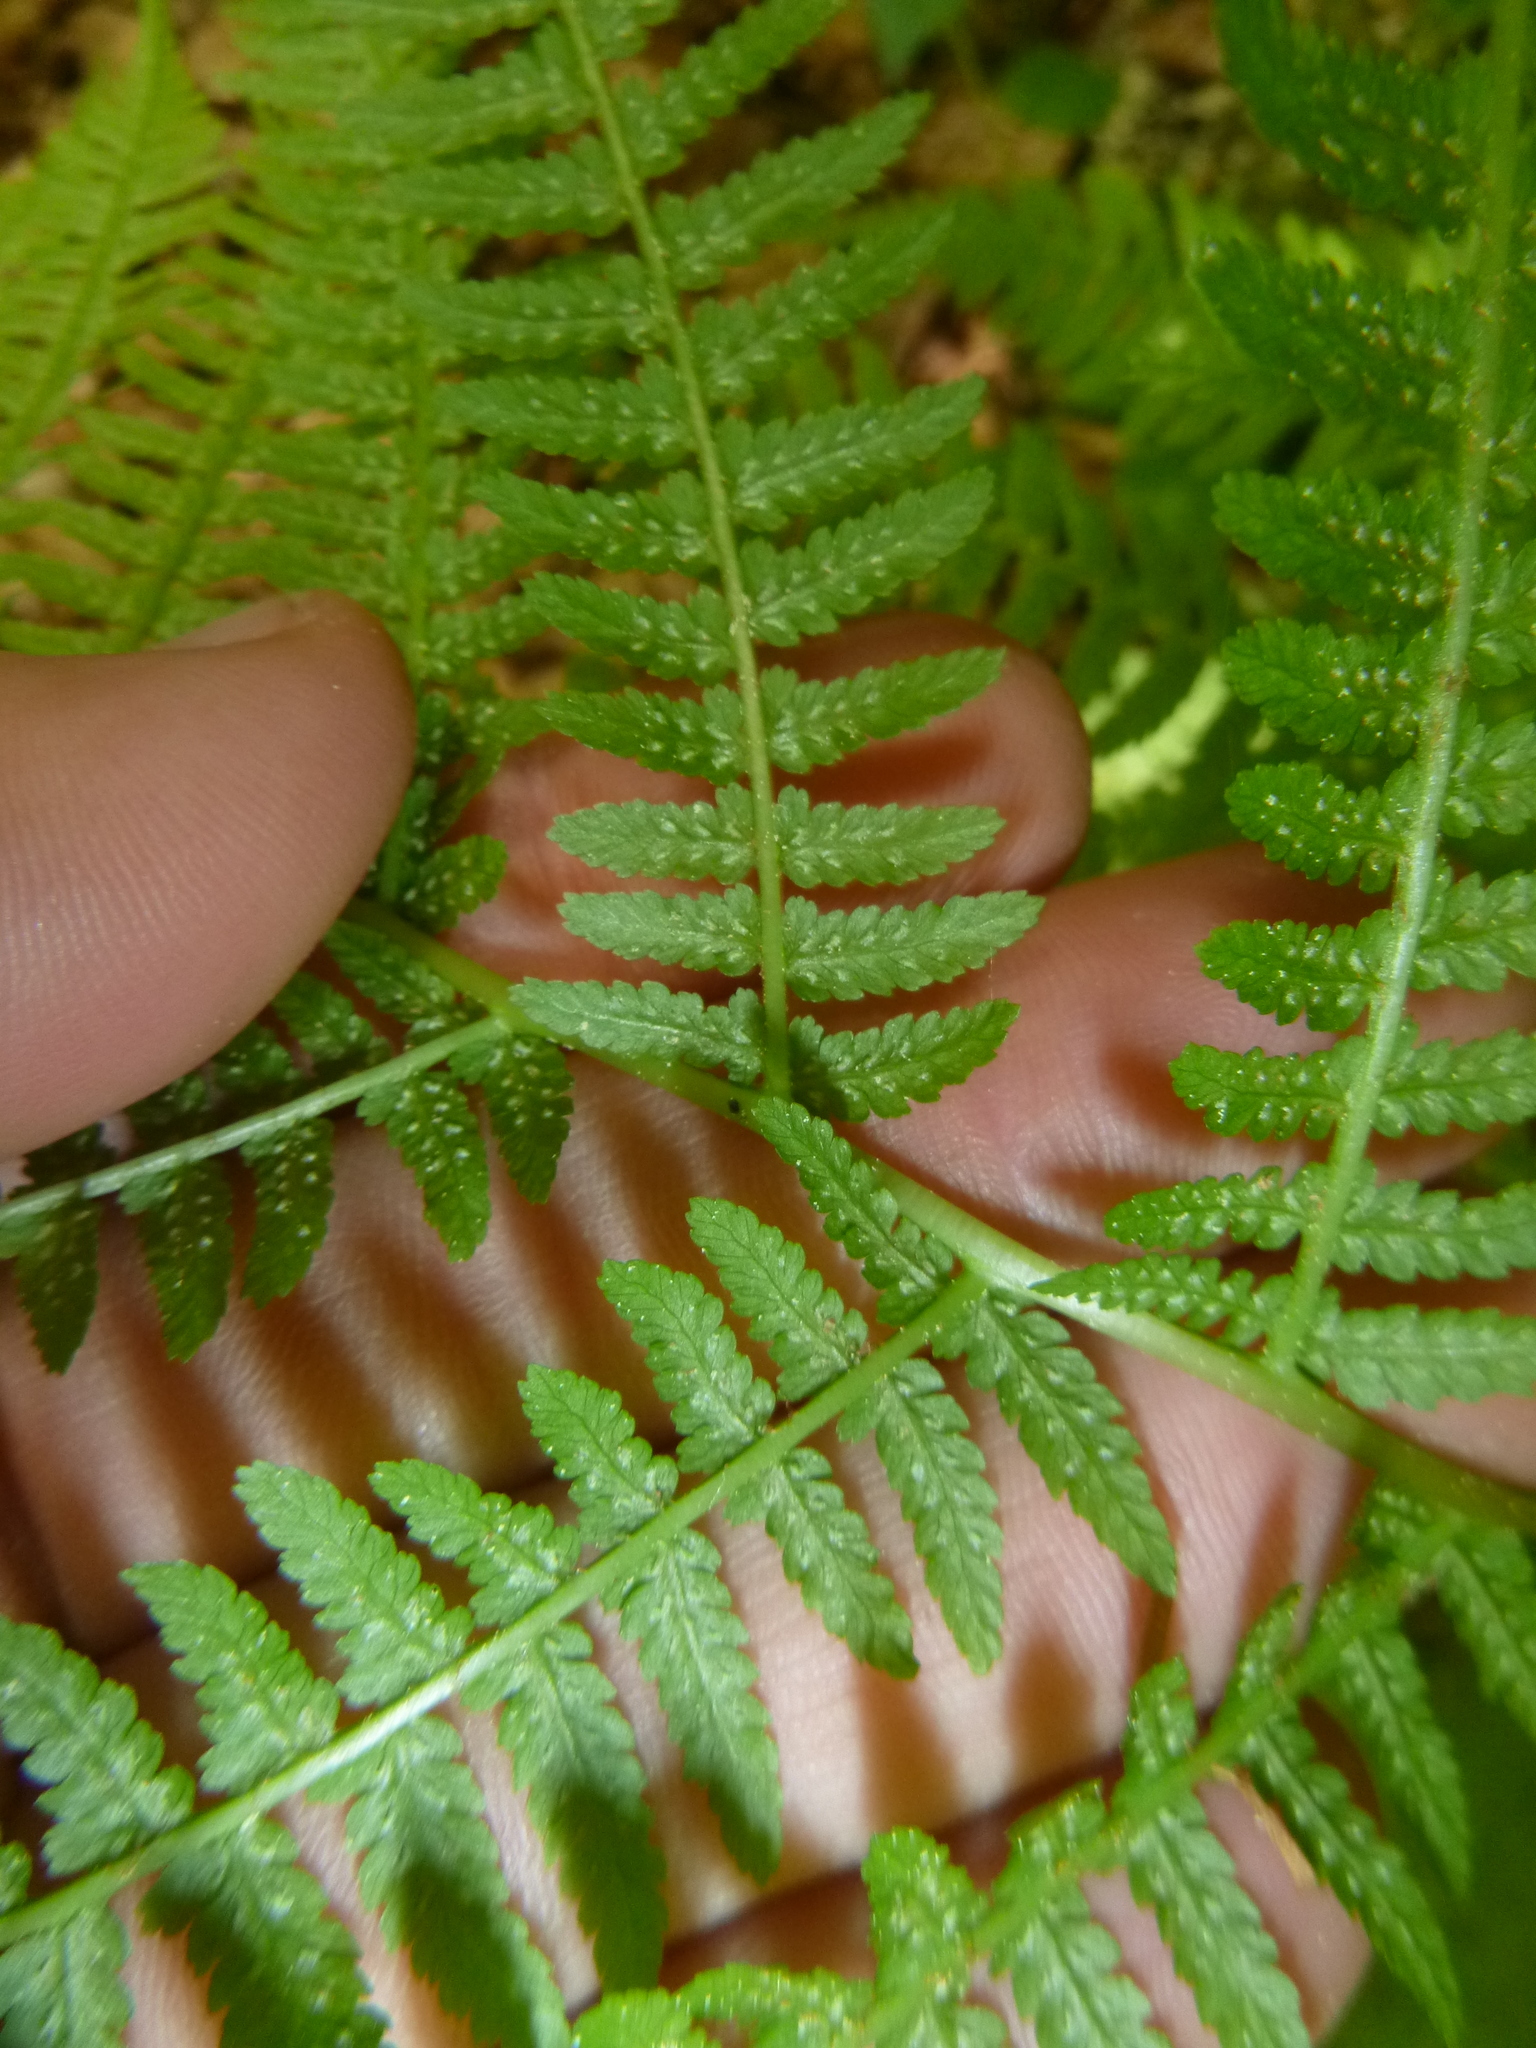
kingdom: Plantae
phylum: Tracheophyta
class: Polypodiopsida
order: Polypodiales
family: Athyriaceae
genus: Athyrium
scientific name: Athyrium filix-femina
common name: Lady fern
